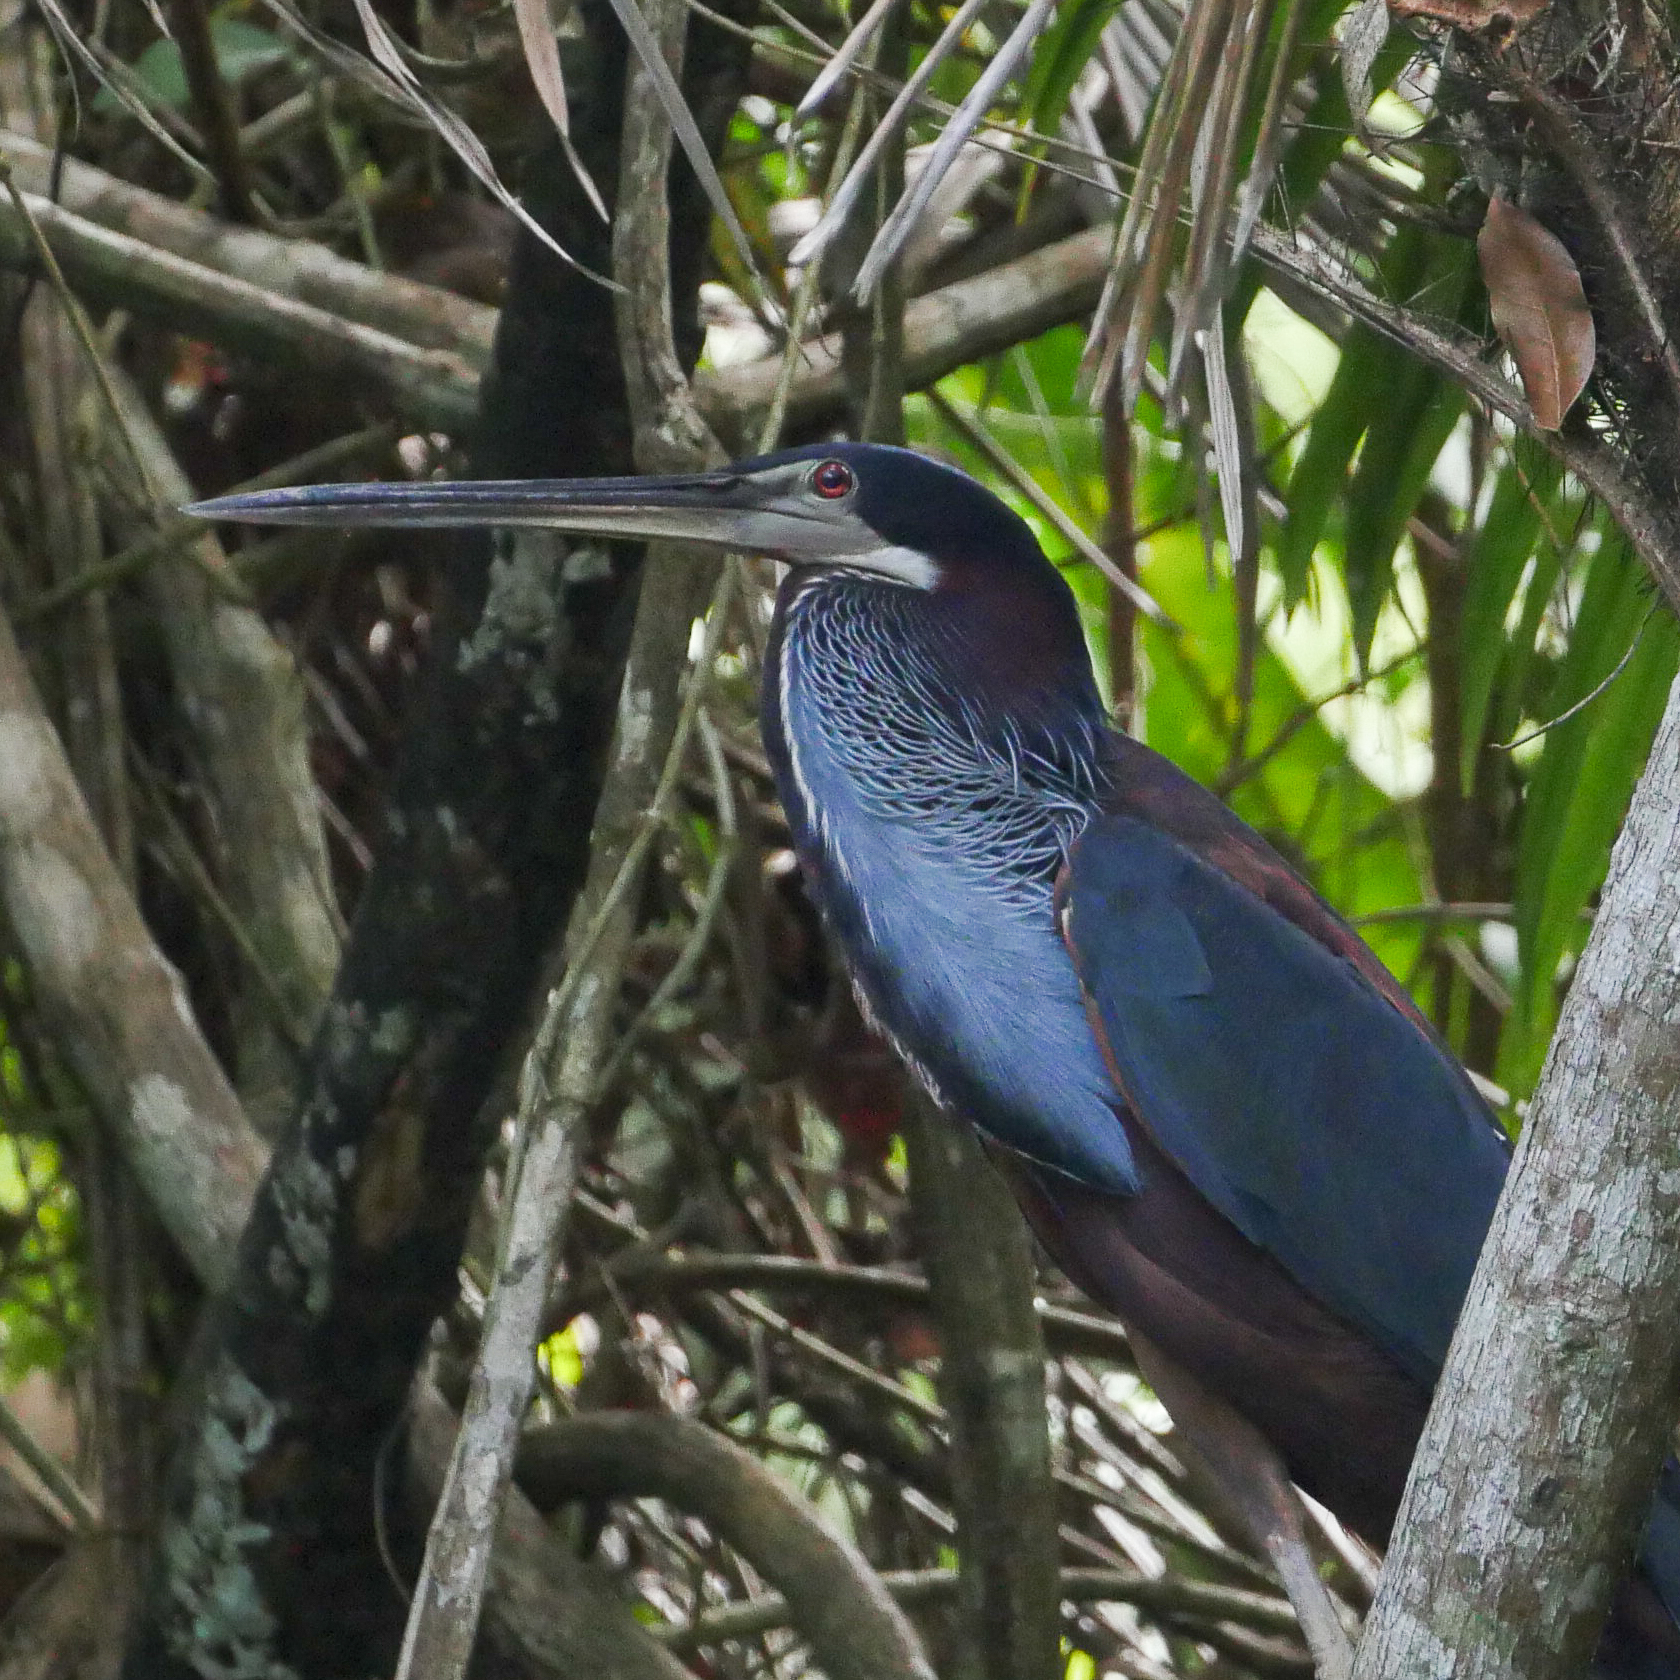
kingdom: Animalia
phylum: Chordata
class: Aves
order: Pelecaniformes
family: Ardeidae
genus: Agamia
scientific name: Agamia agami
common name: Agami heron
